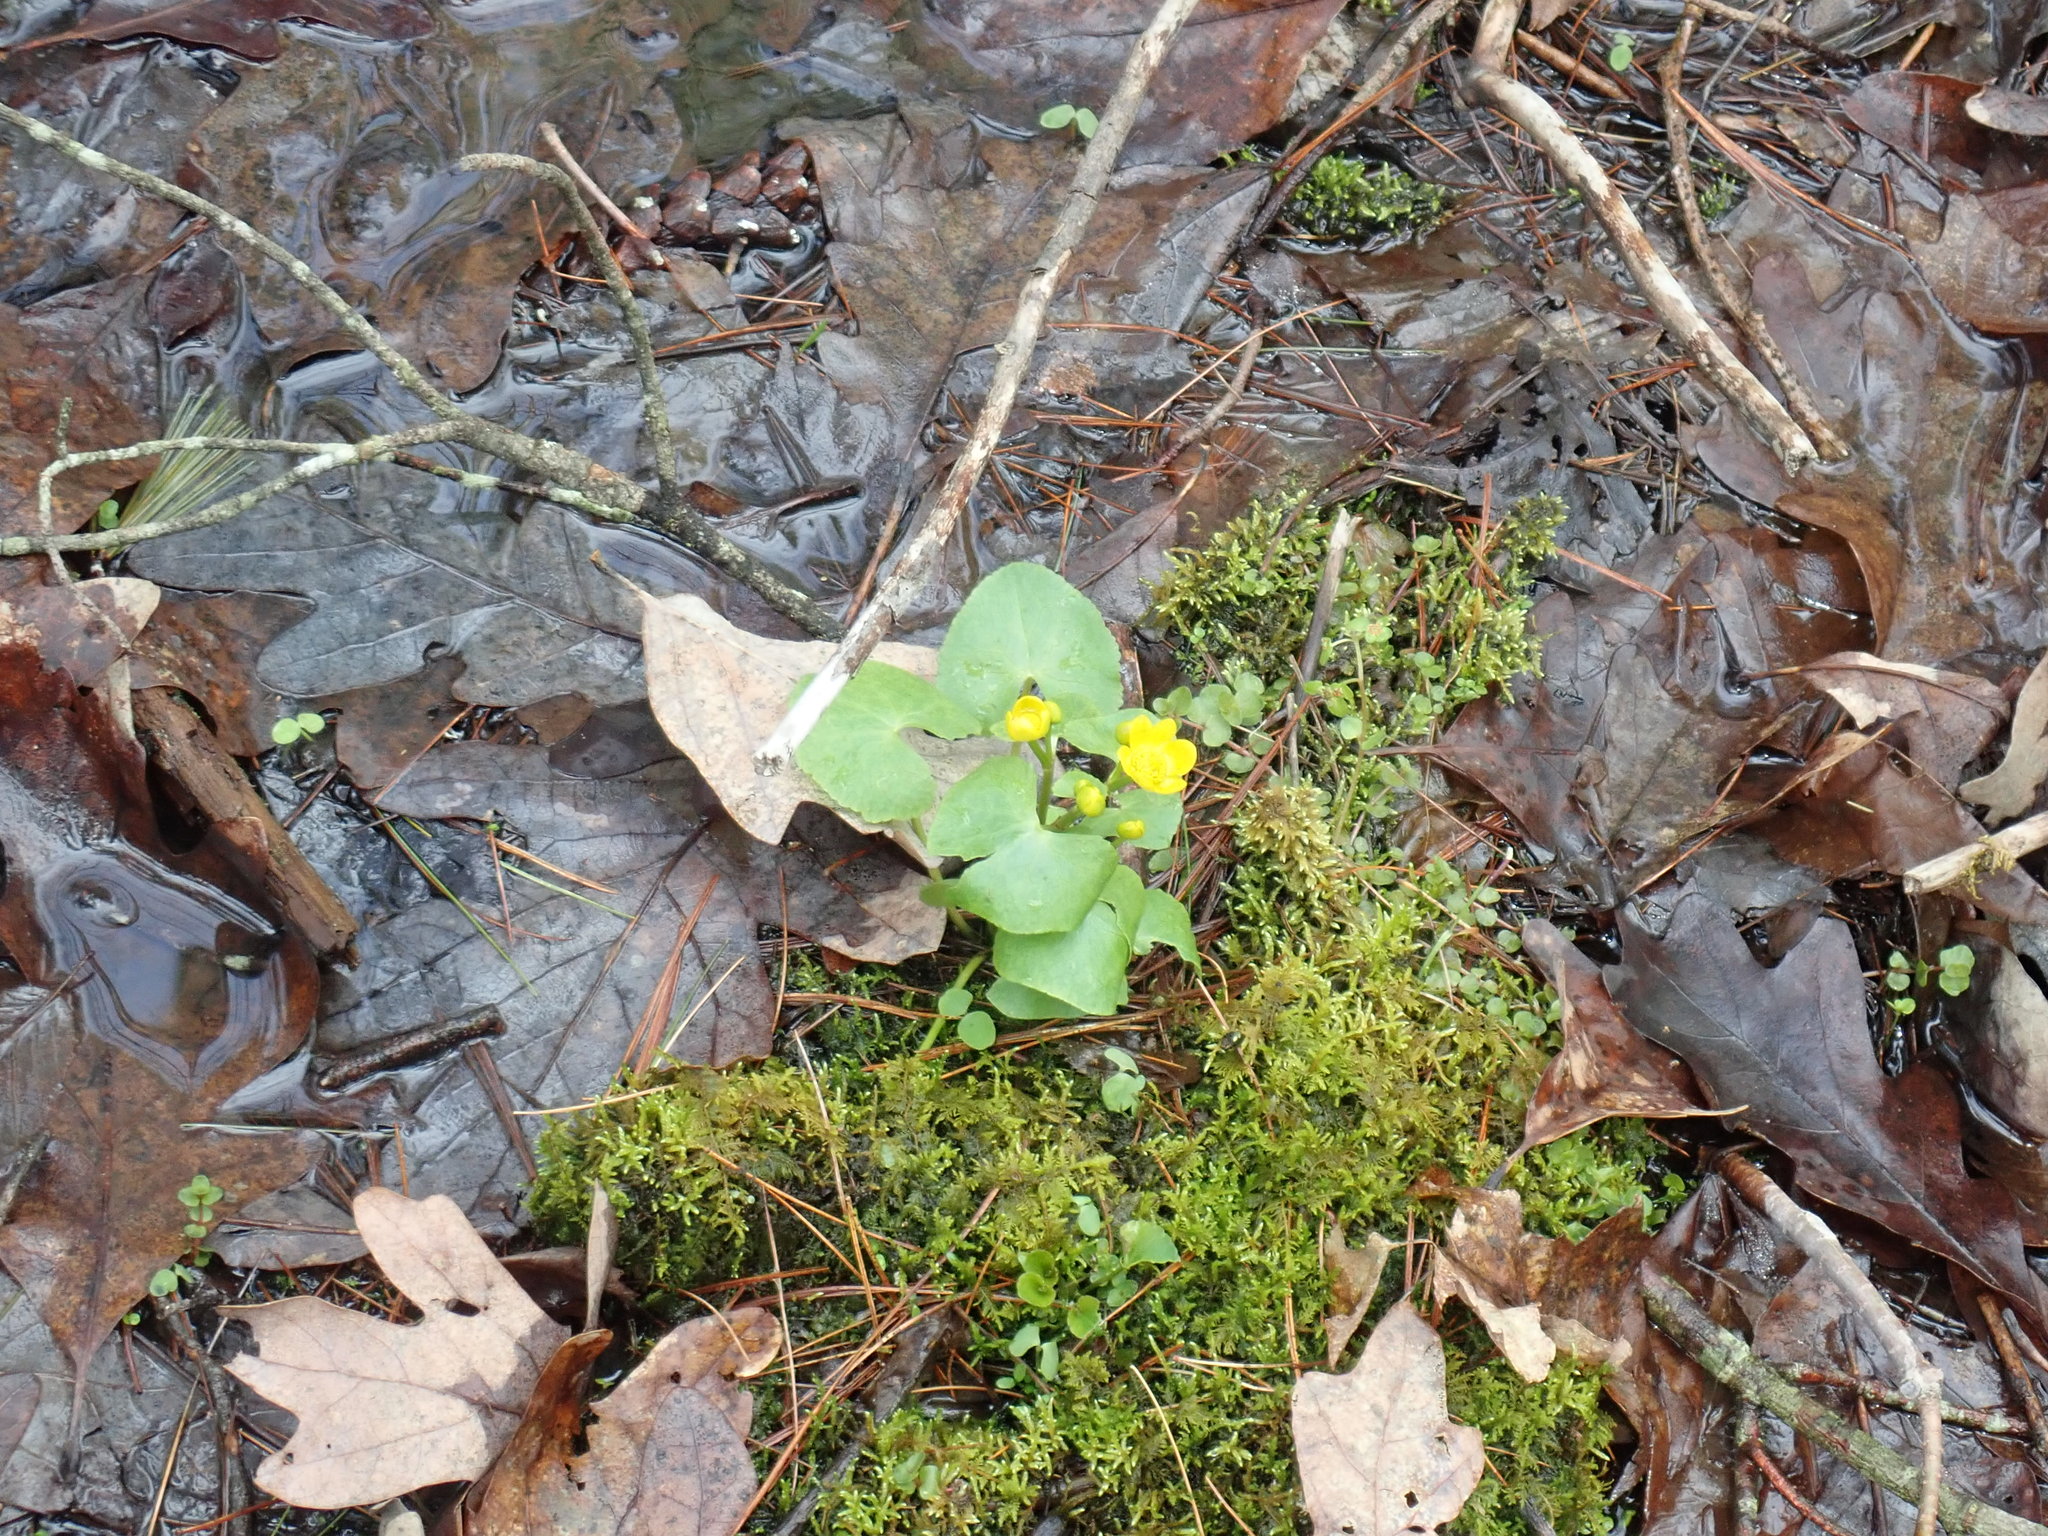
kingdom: Plantae
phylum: Tracheophyta
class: Magnoliopsida
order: Ranunculales
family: Ranunculaceae
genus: Caltha
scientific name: Caltha palustris
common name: Marsh marigold
